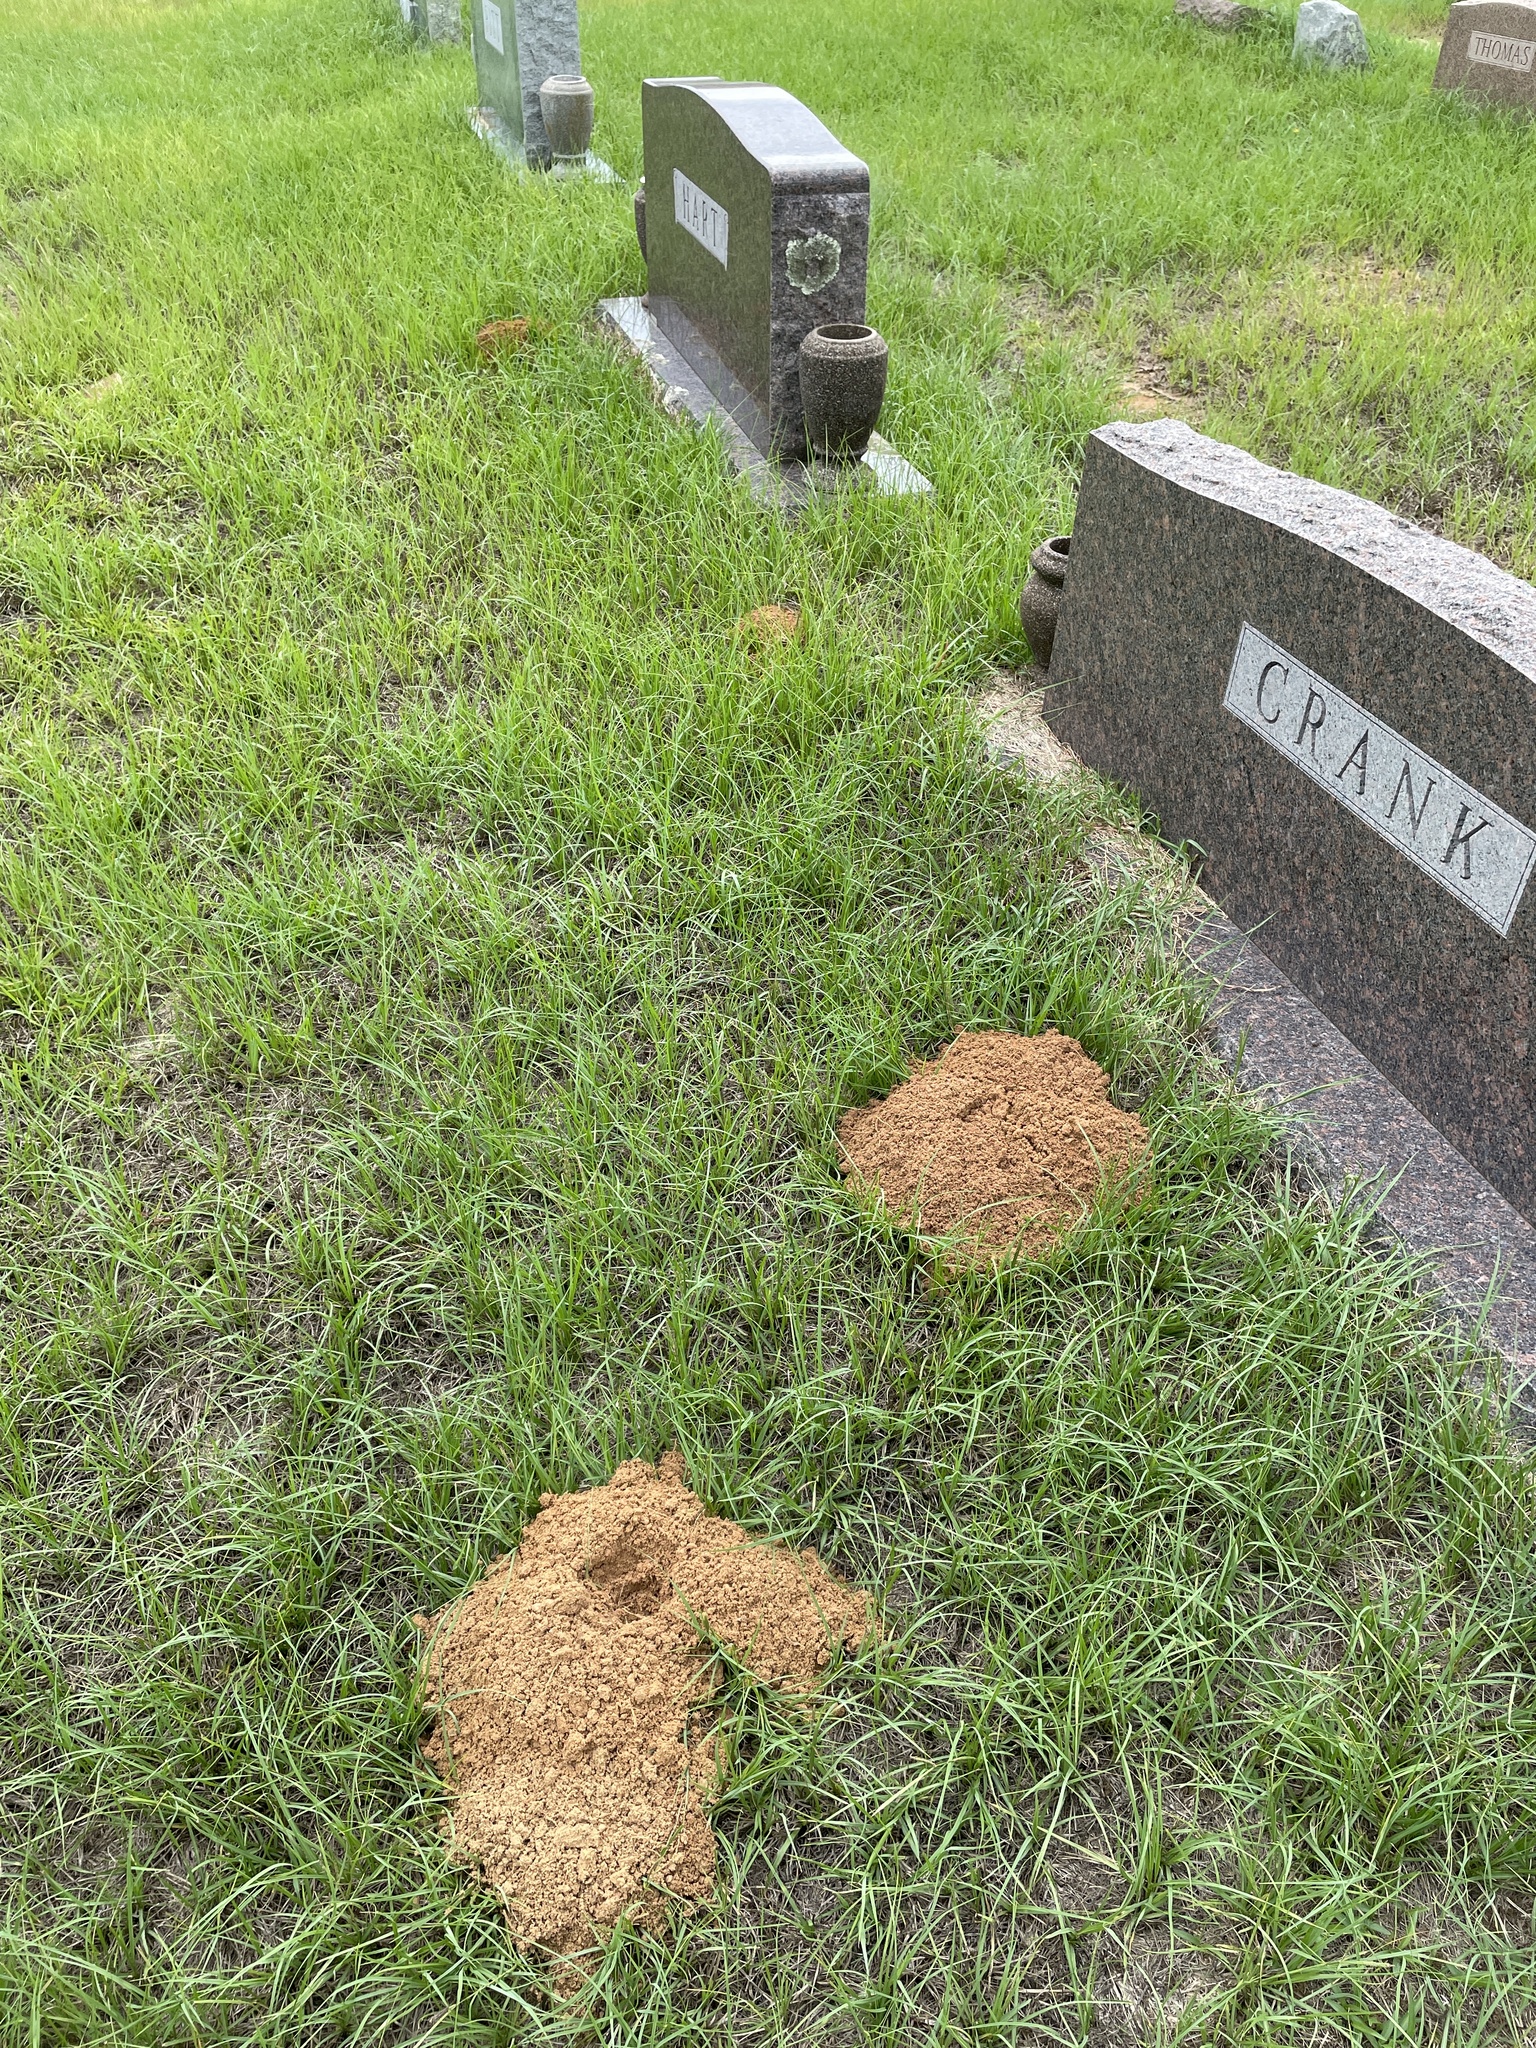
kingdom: Animalia
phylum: Chordata
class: Mammalia
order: Rodentia
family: Geomyidae
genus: Geomys
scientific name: Geomys breviceps
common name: Baird's pocket gopher
